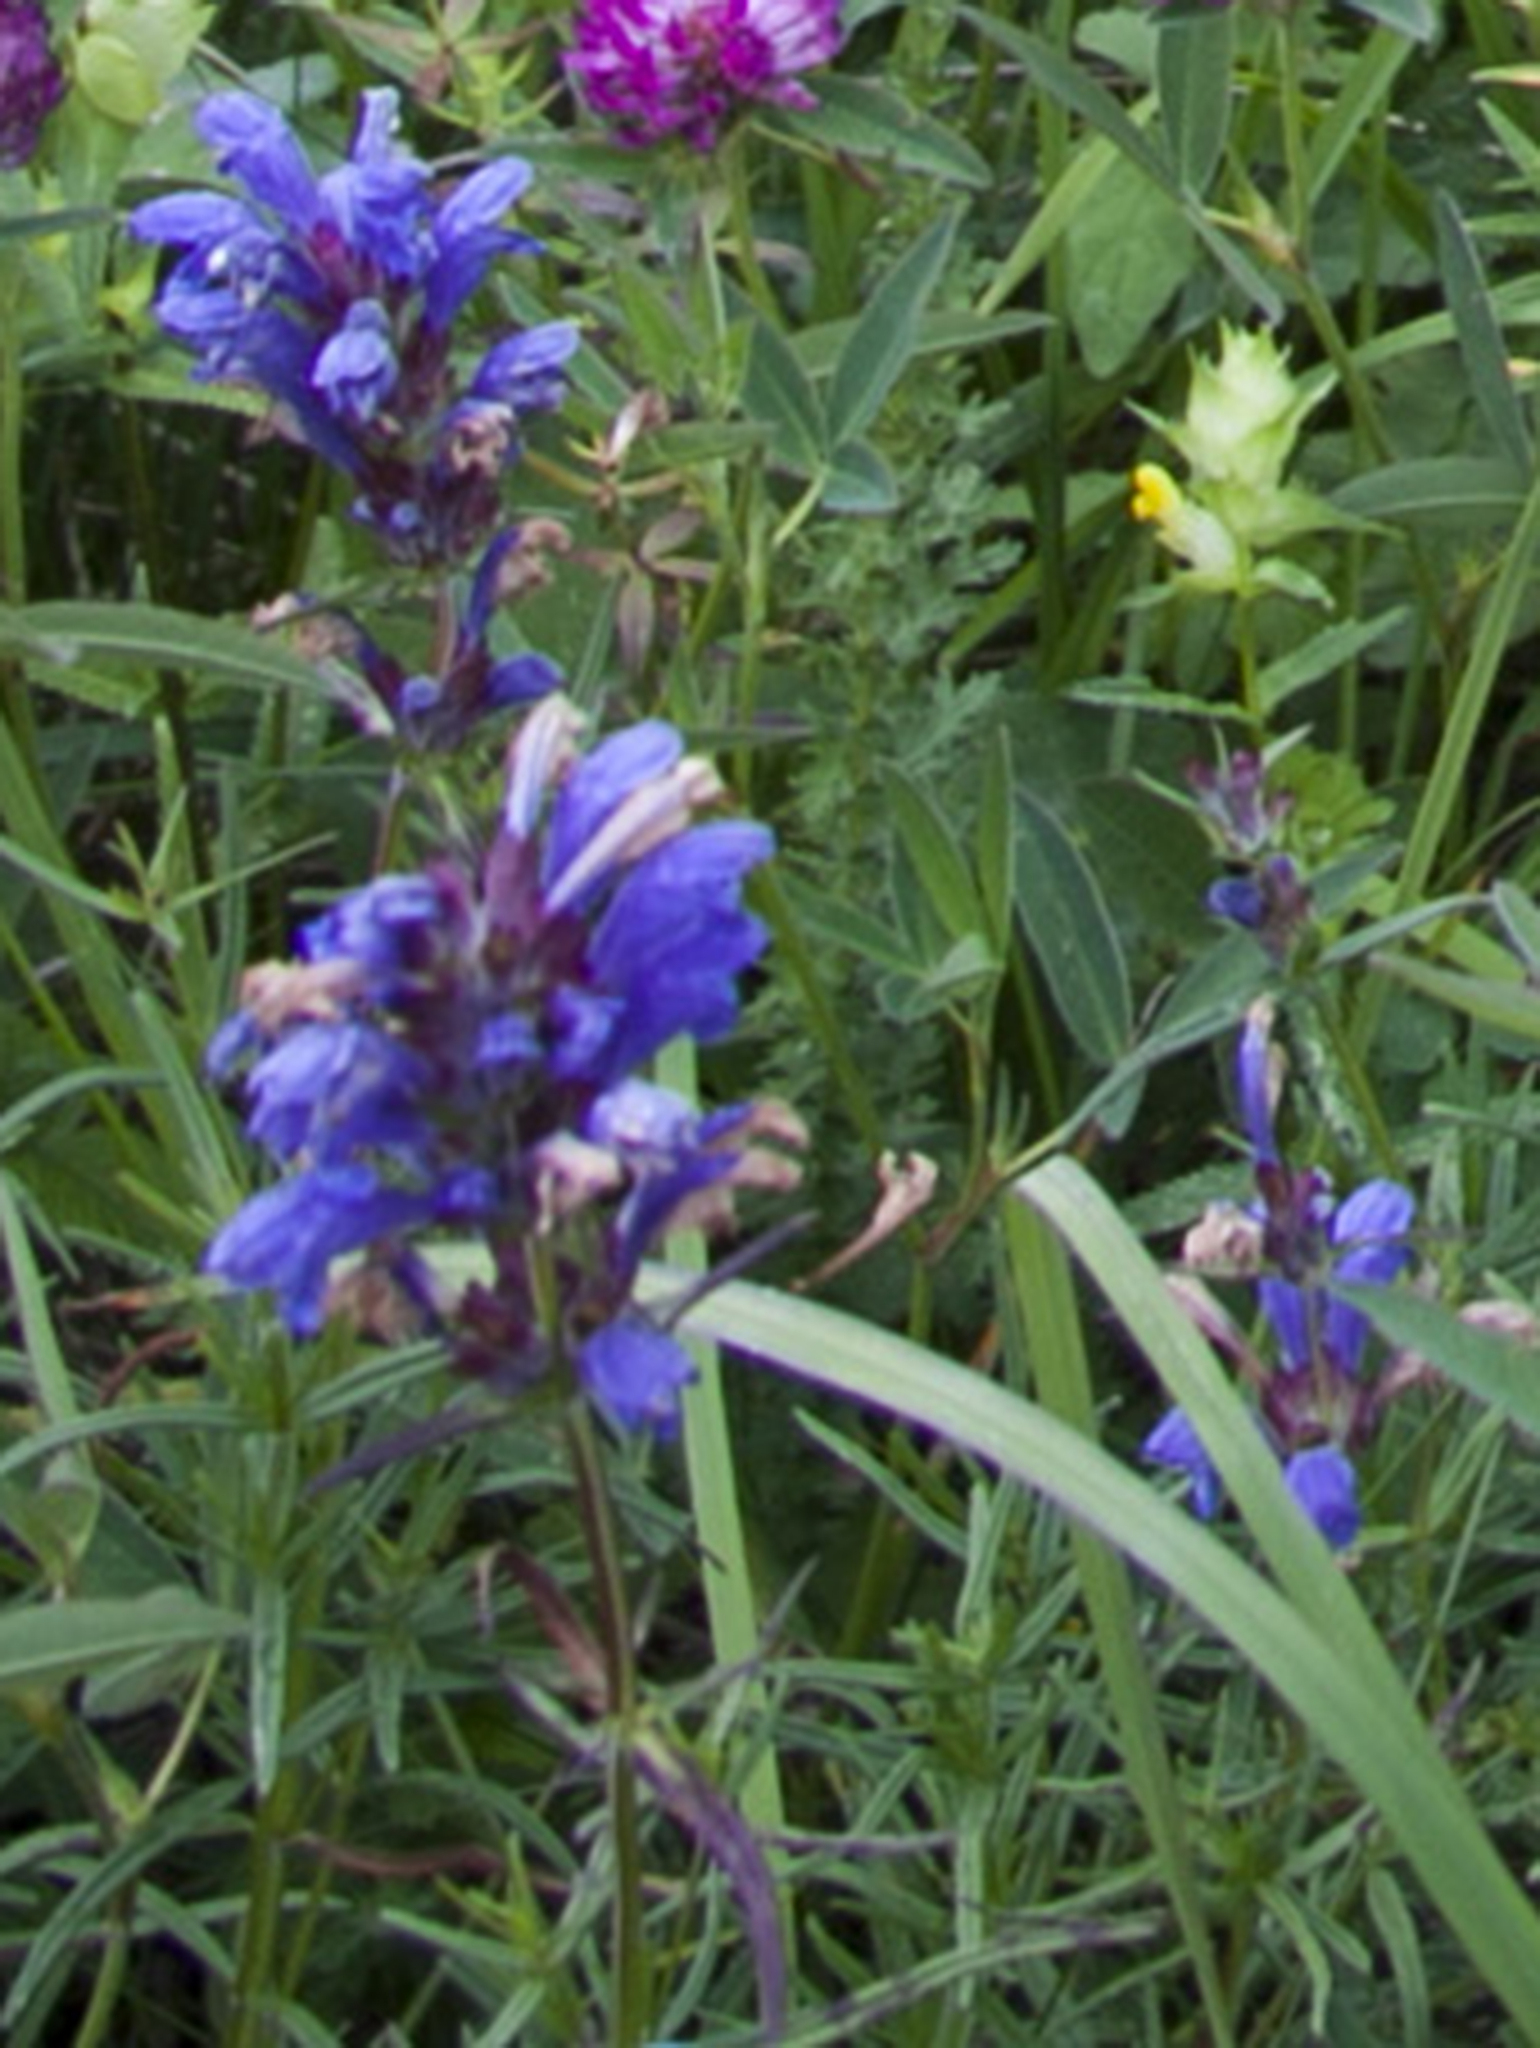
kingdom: Plantae
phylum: Tracheophyta
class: Magnoliopsida
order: Lamiales
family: Lamiaceae
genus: Dracocephalum
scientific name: Dracocephalum ruyschiana
